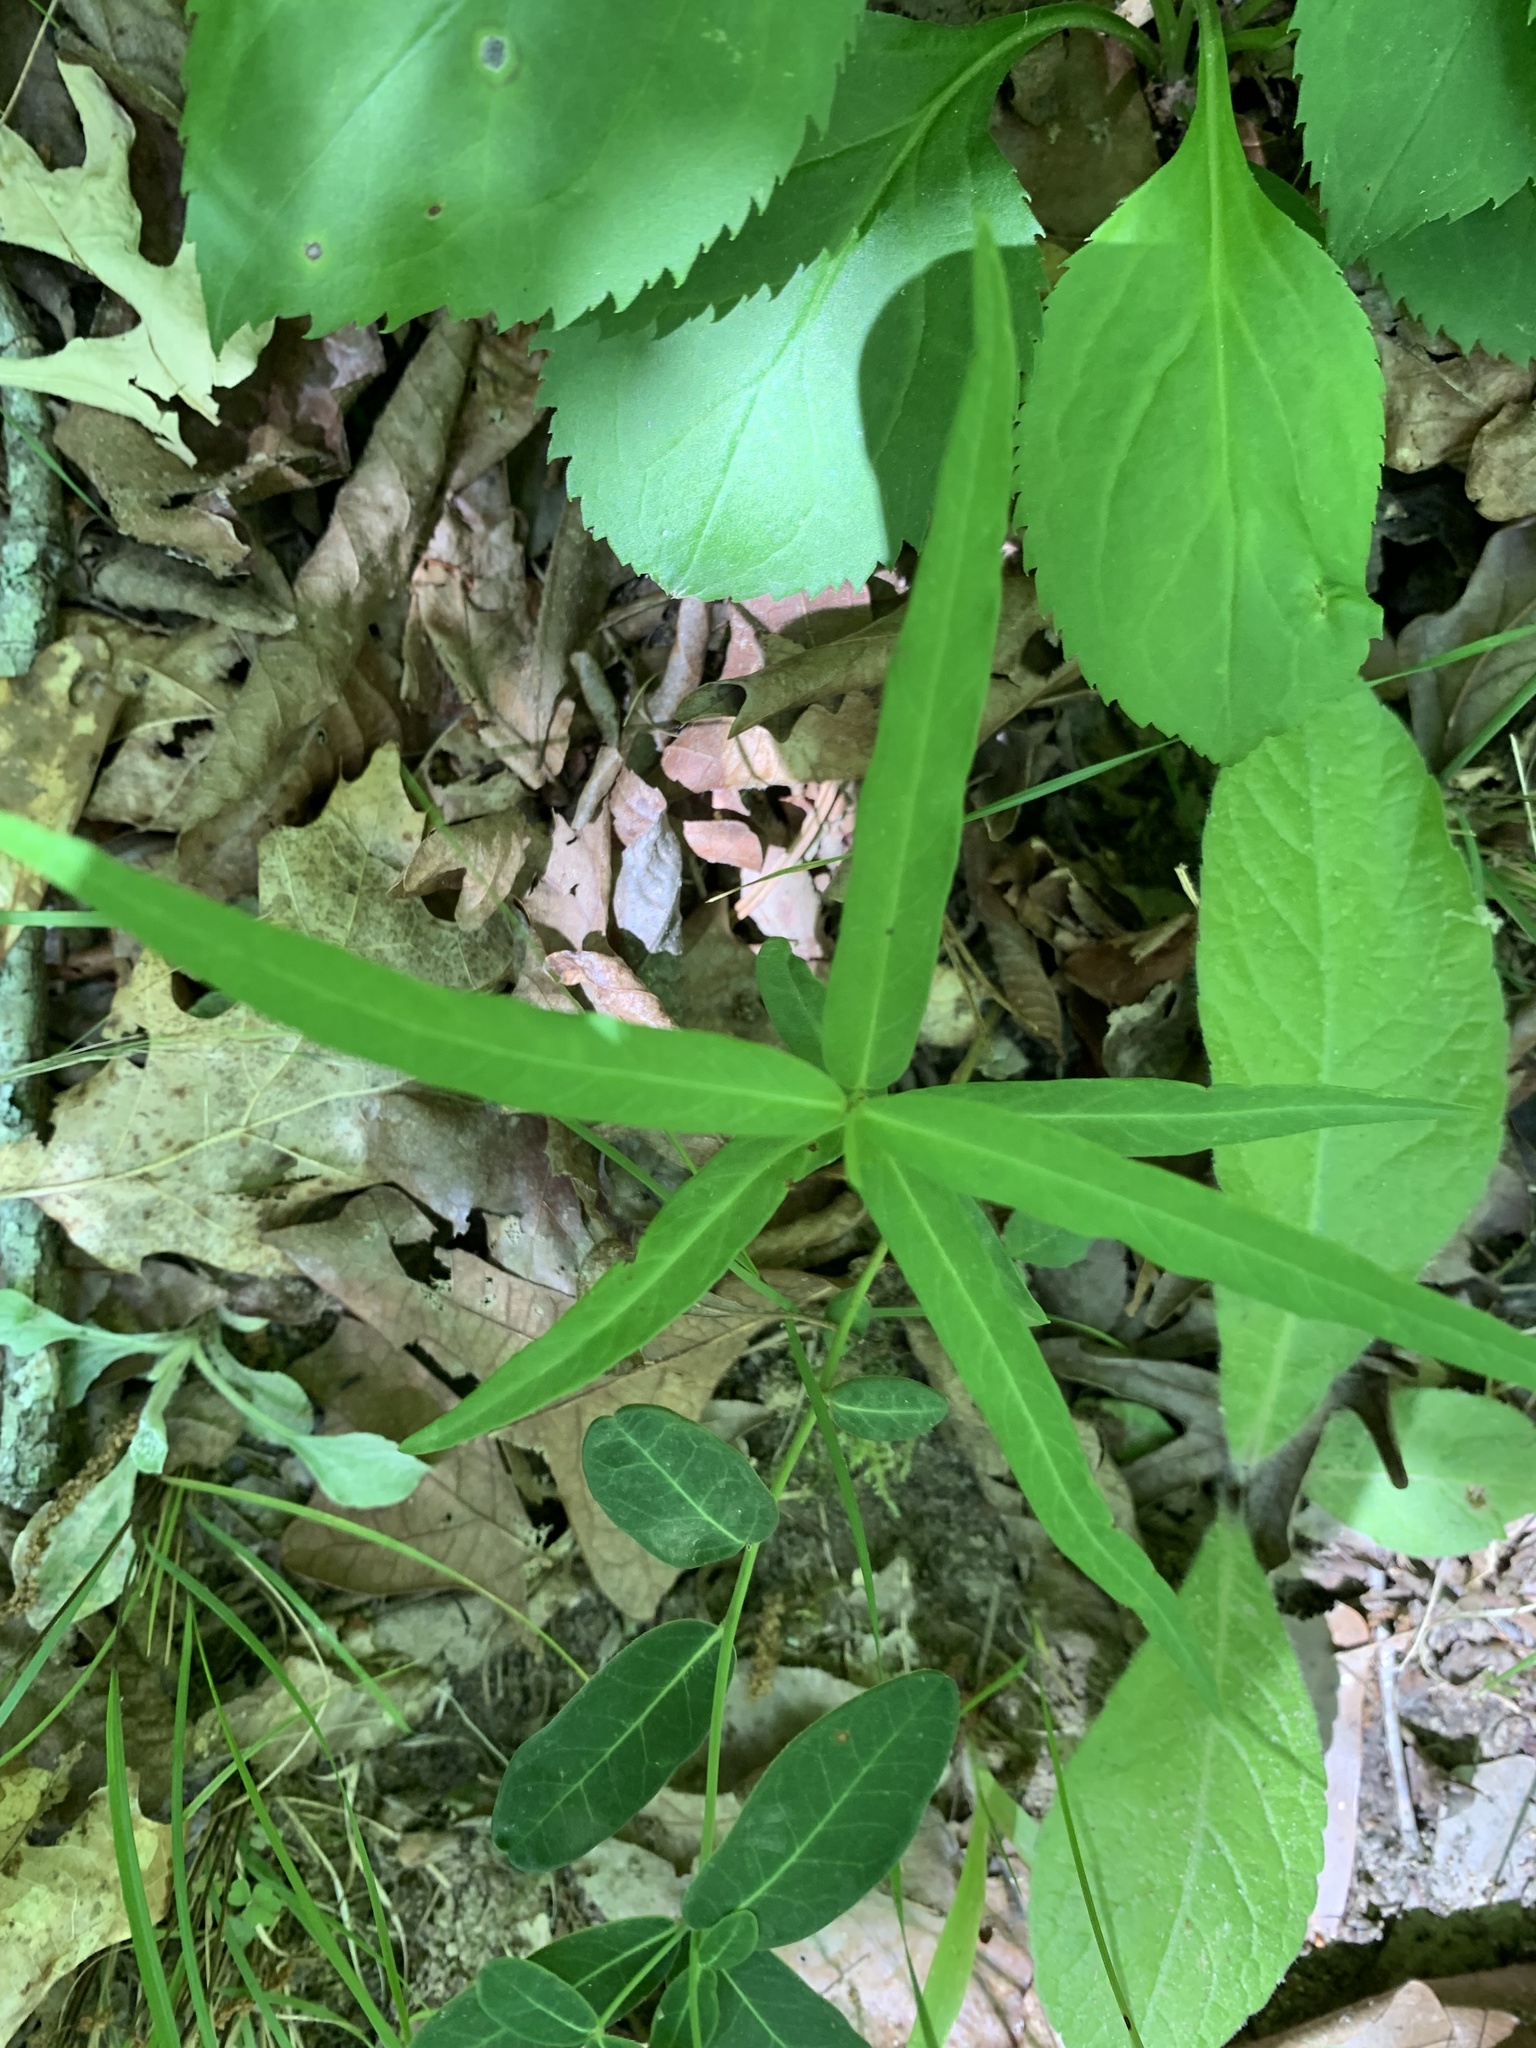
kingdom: Plantae
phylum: Tracheophyta
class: Magnoliopsida
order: Gentianales
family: Apocynaceae
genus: Thyrsanthella
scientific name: Thyrsanthella difformis
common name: Climbing dogbane
